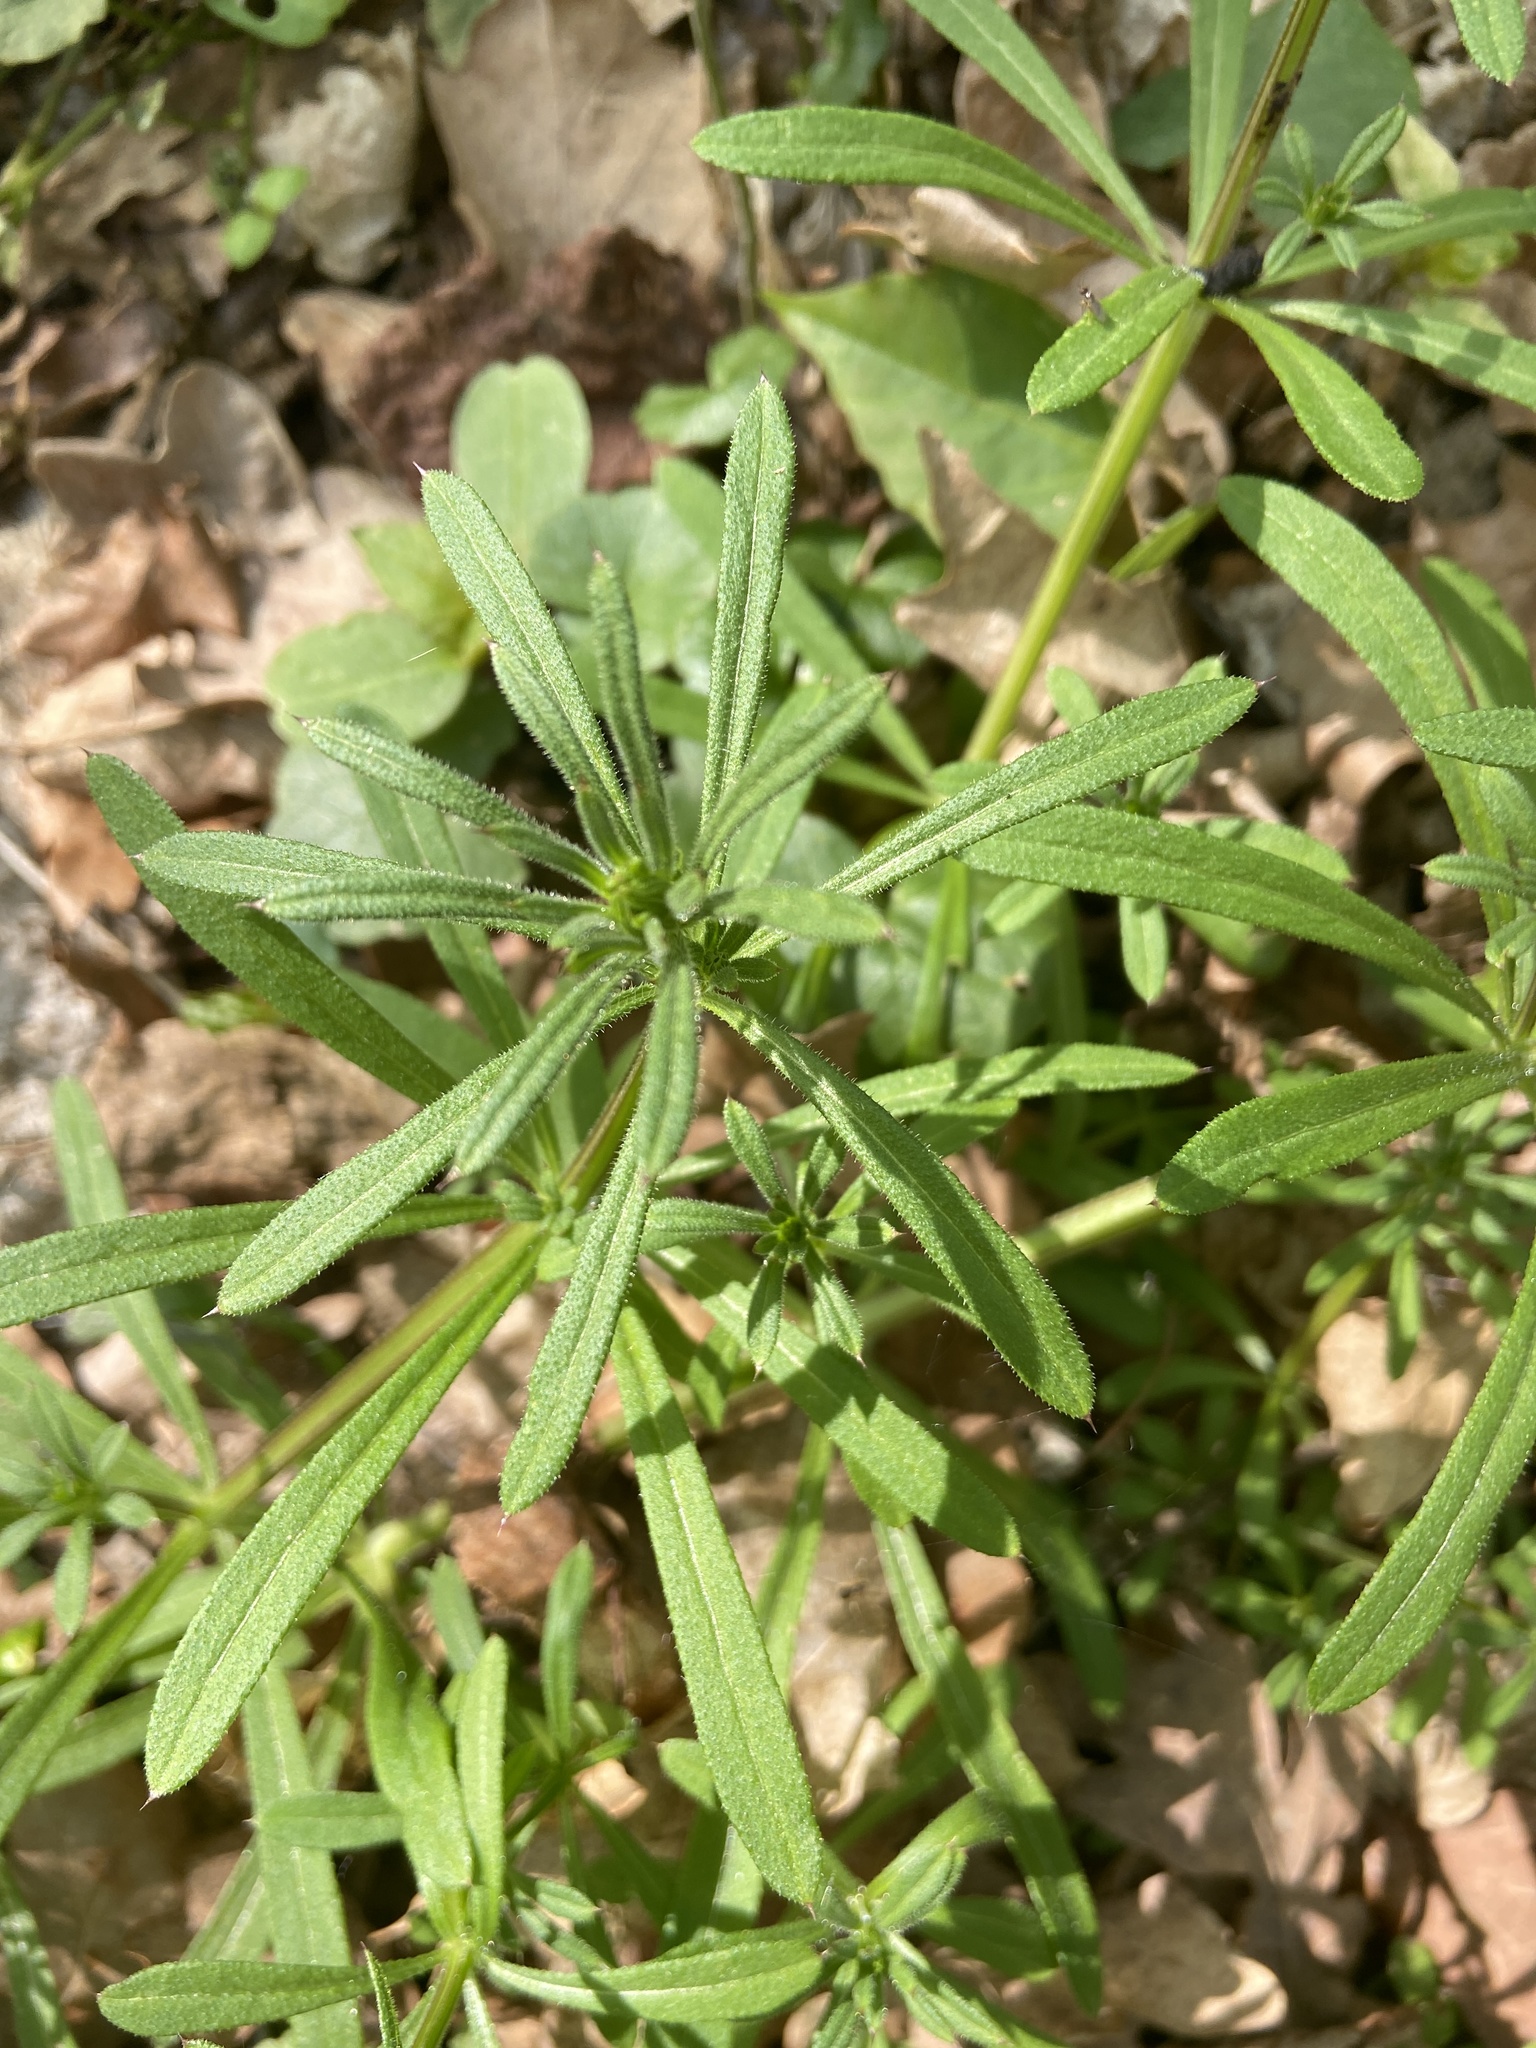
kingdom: Plantae
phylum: Tracheophyta
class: Magnoliopsida
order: Gentianales
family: Rubiaceae
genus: Galium
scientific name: Galium aparine
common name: Cleavers
